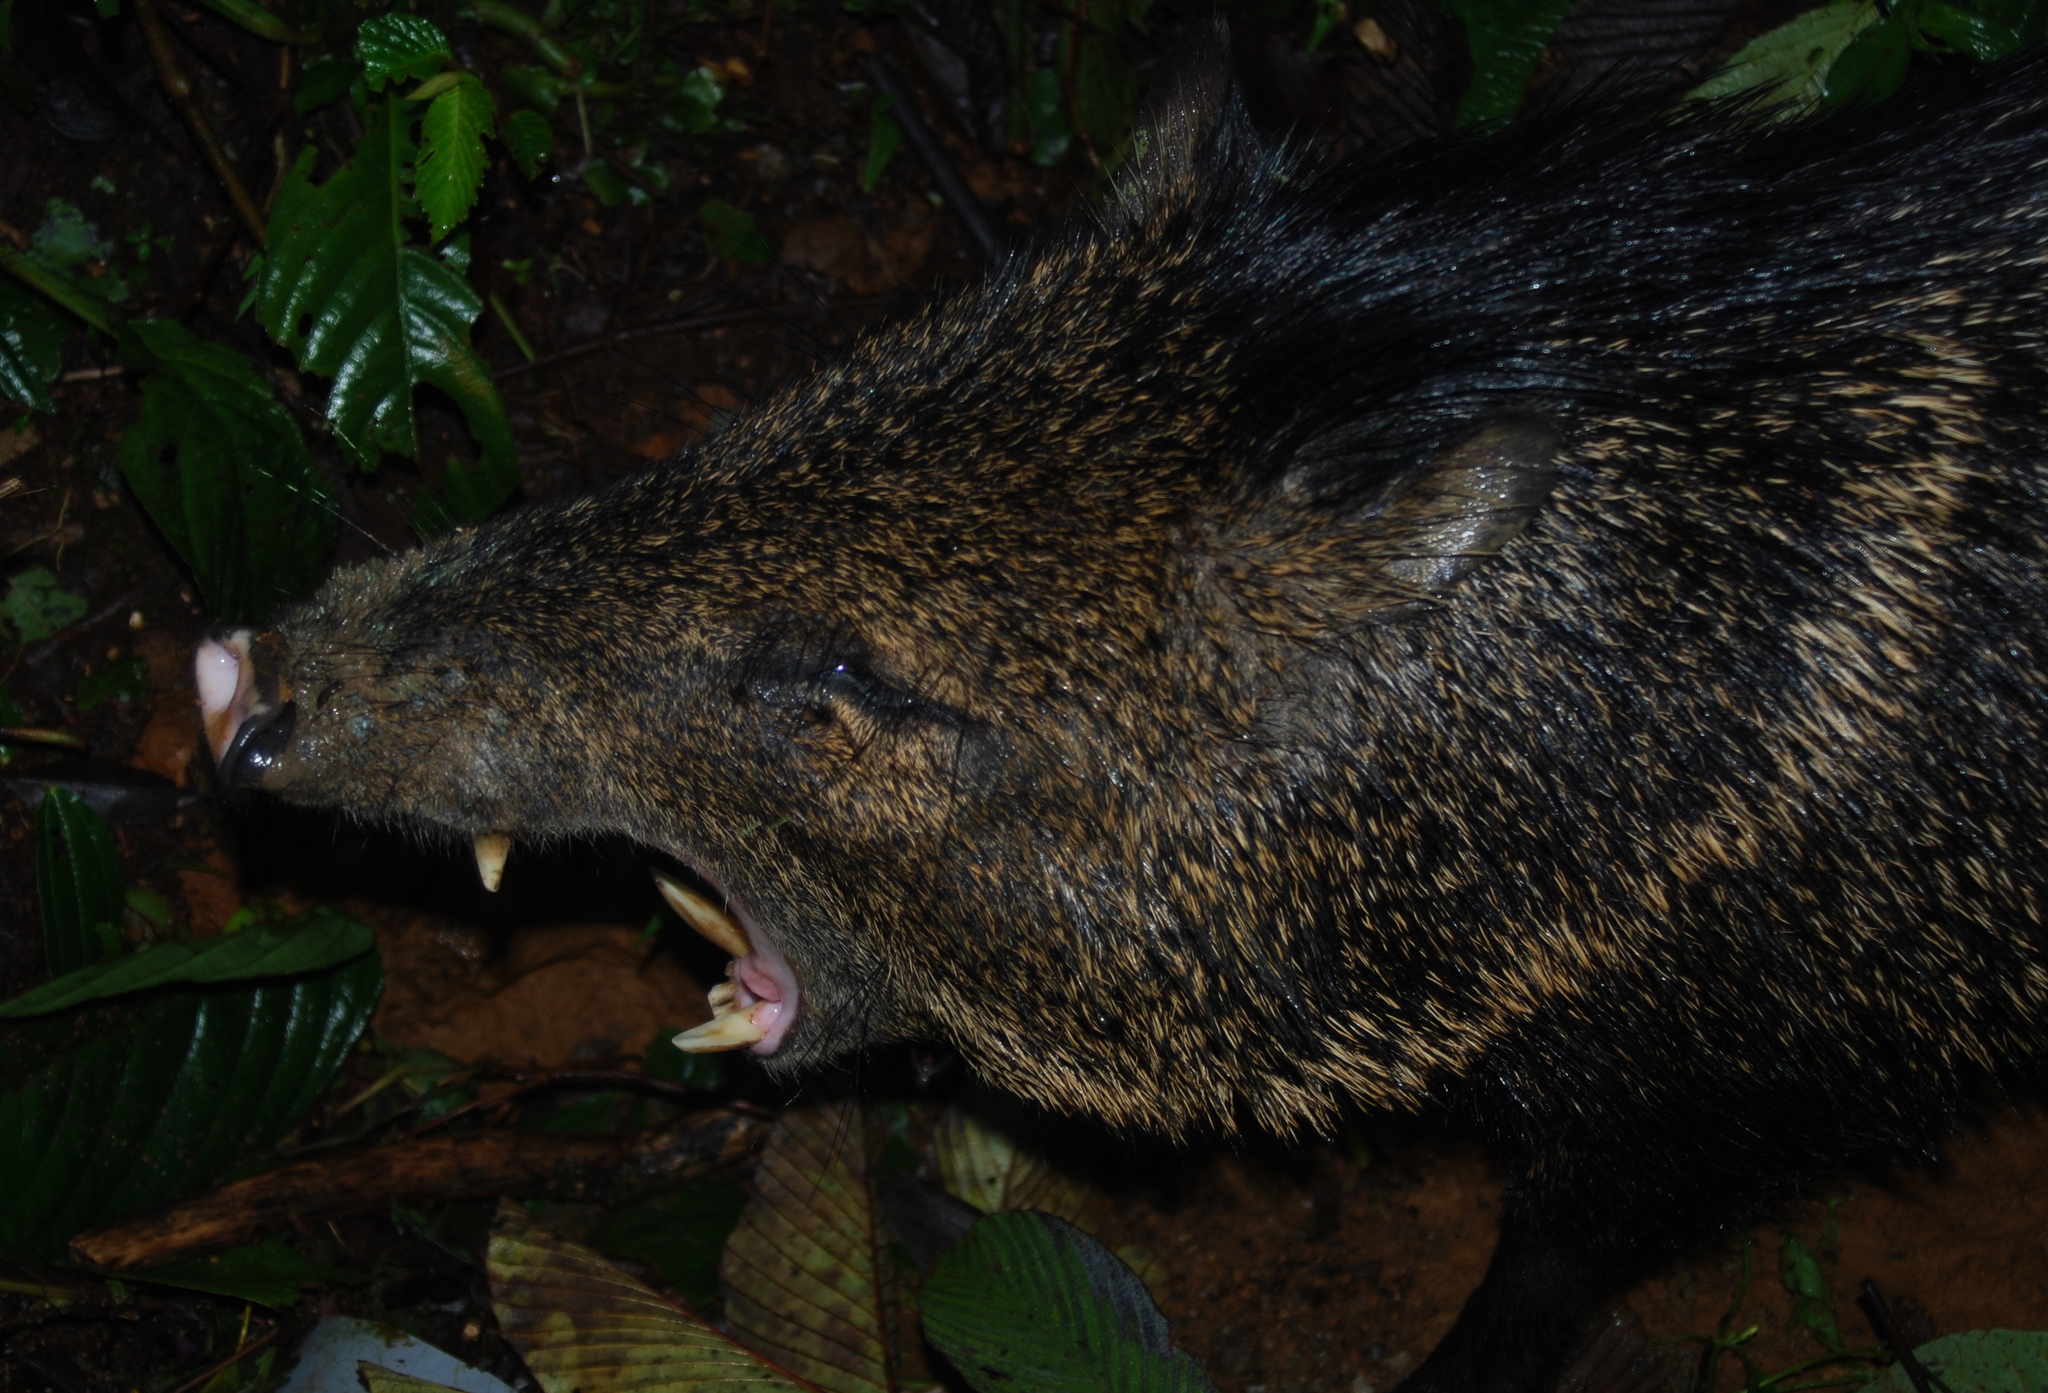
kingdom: Animalia
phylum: Chordata
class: Mammalia
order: Artiodactyla
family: Tayassuidae
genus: Pecari
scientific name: Pecari tajacu
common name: Collared peccary
